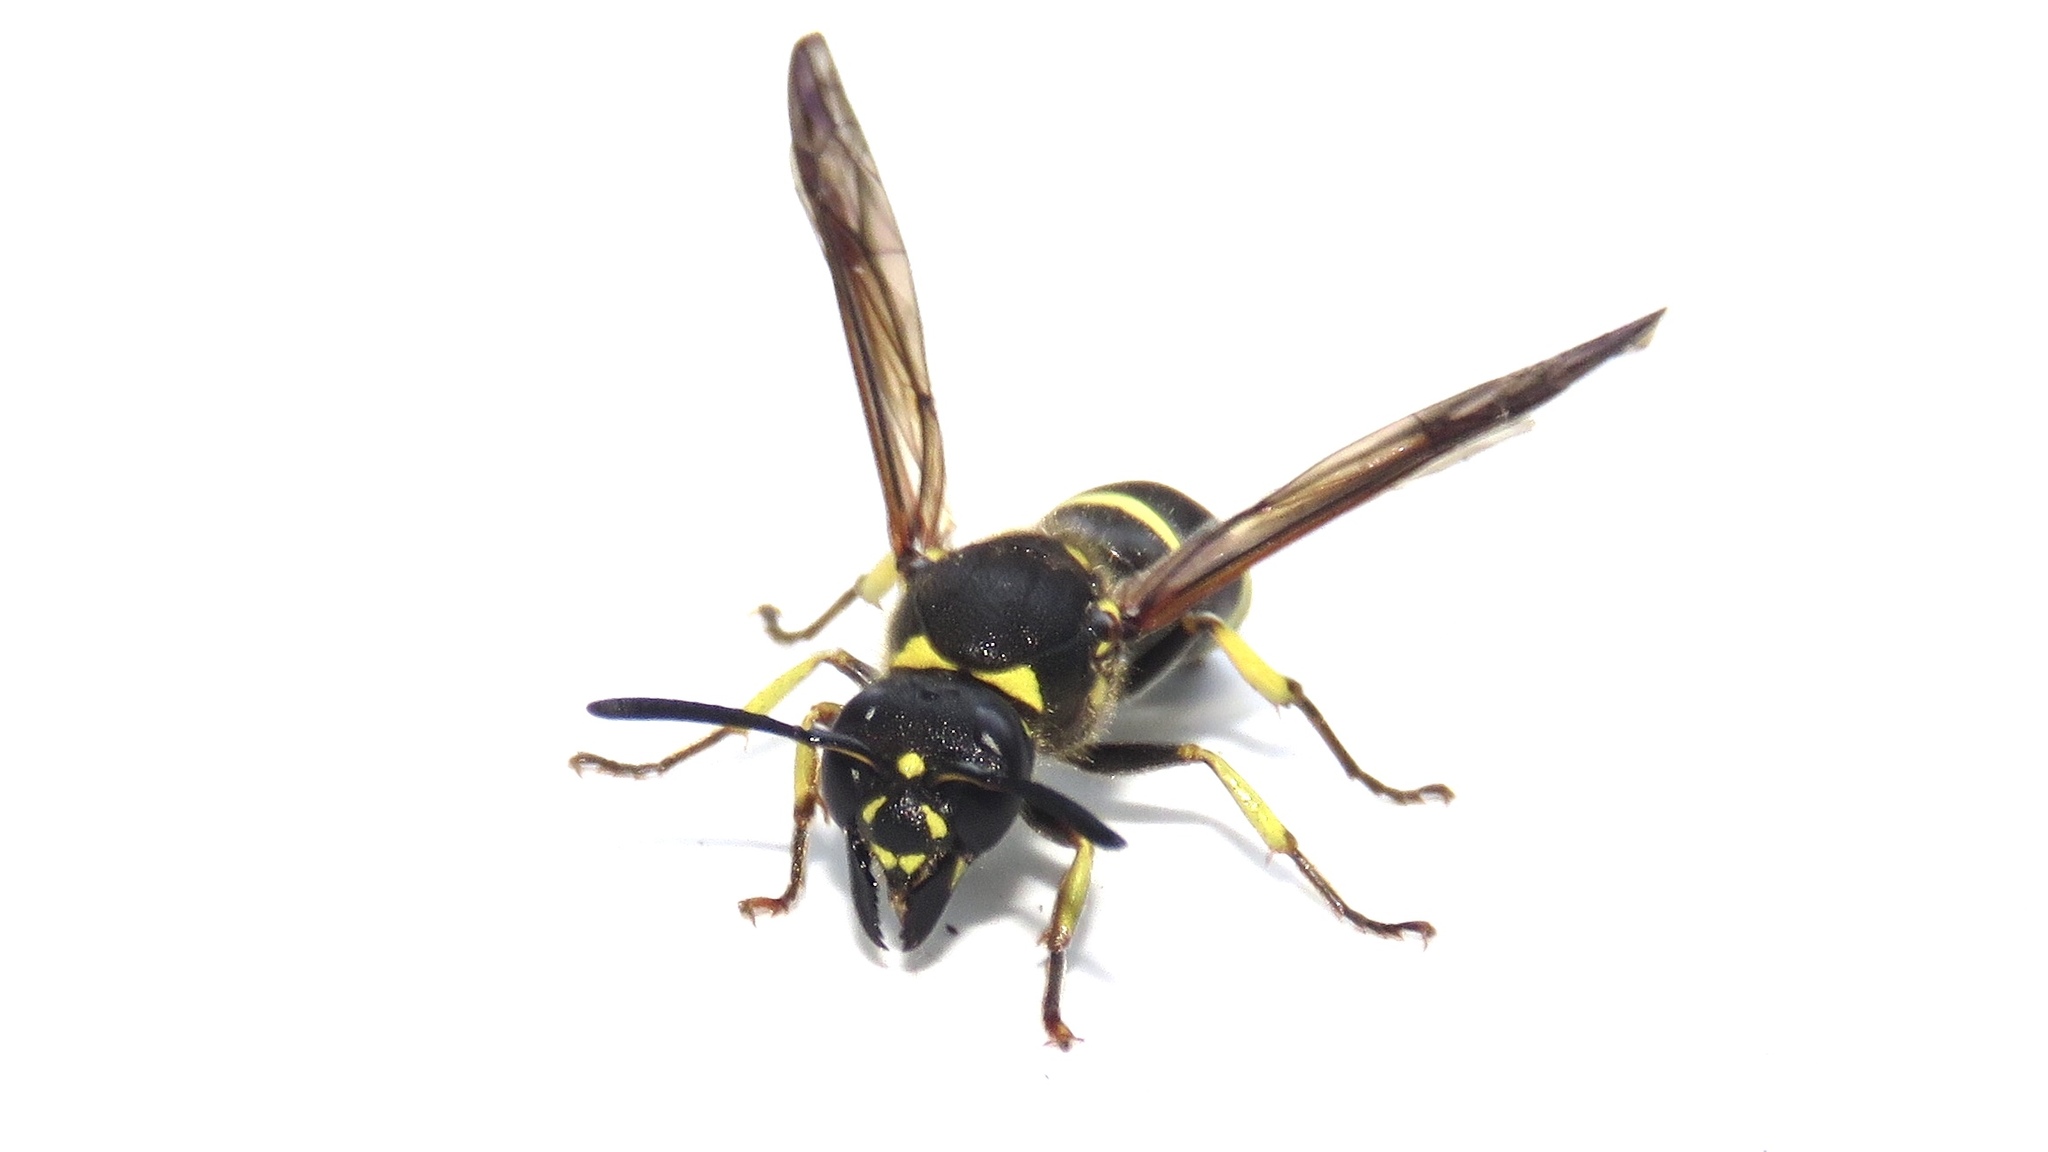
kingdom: Animalia
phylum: Arthropoda
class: Insecta
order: Hymenoptera
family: Vespidae
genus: Ancistrocerus
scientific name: Ancistrocerus
